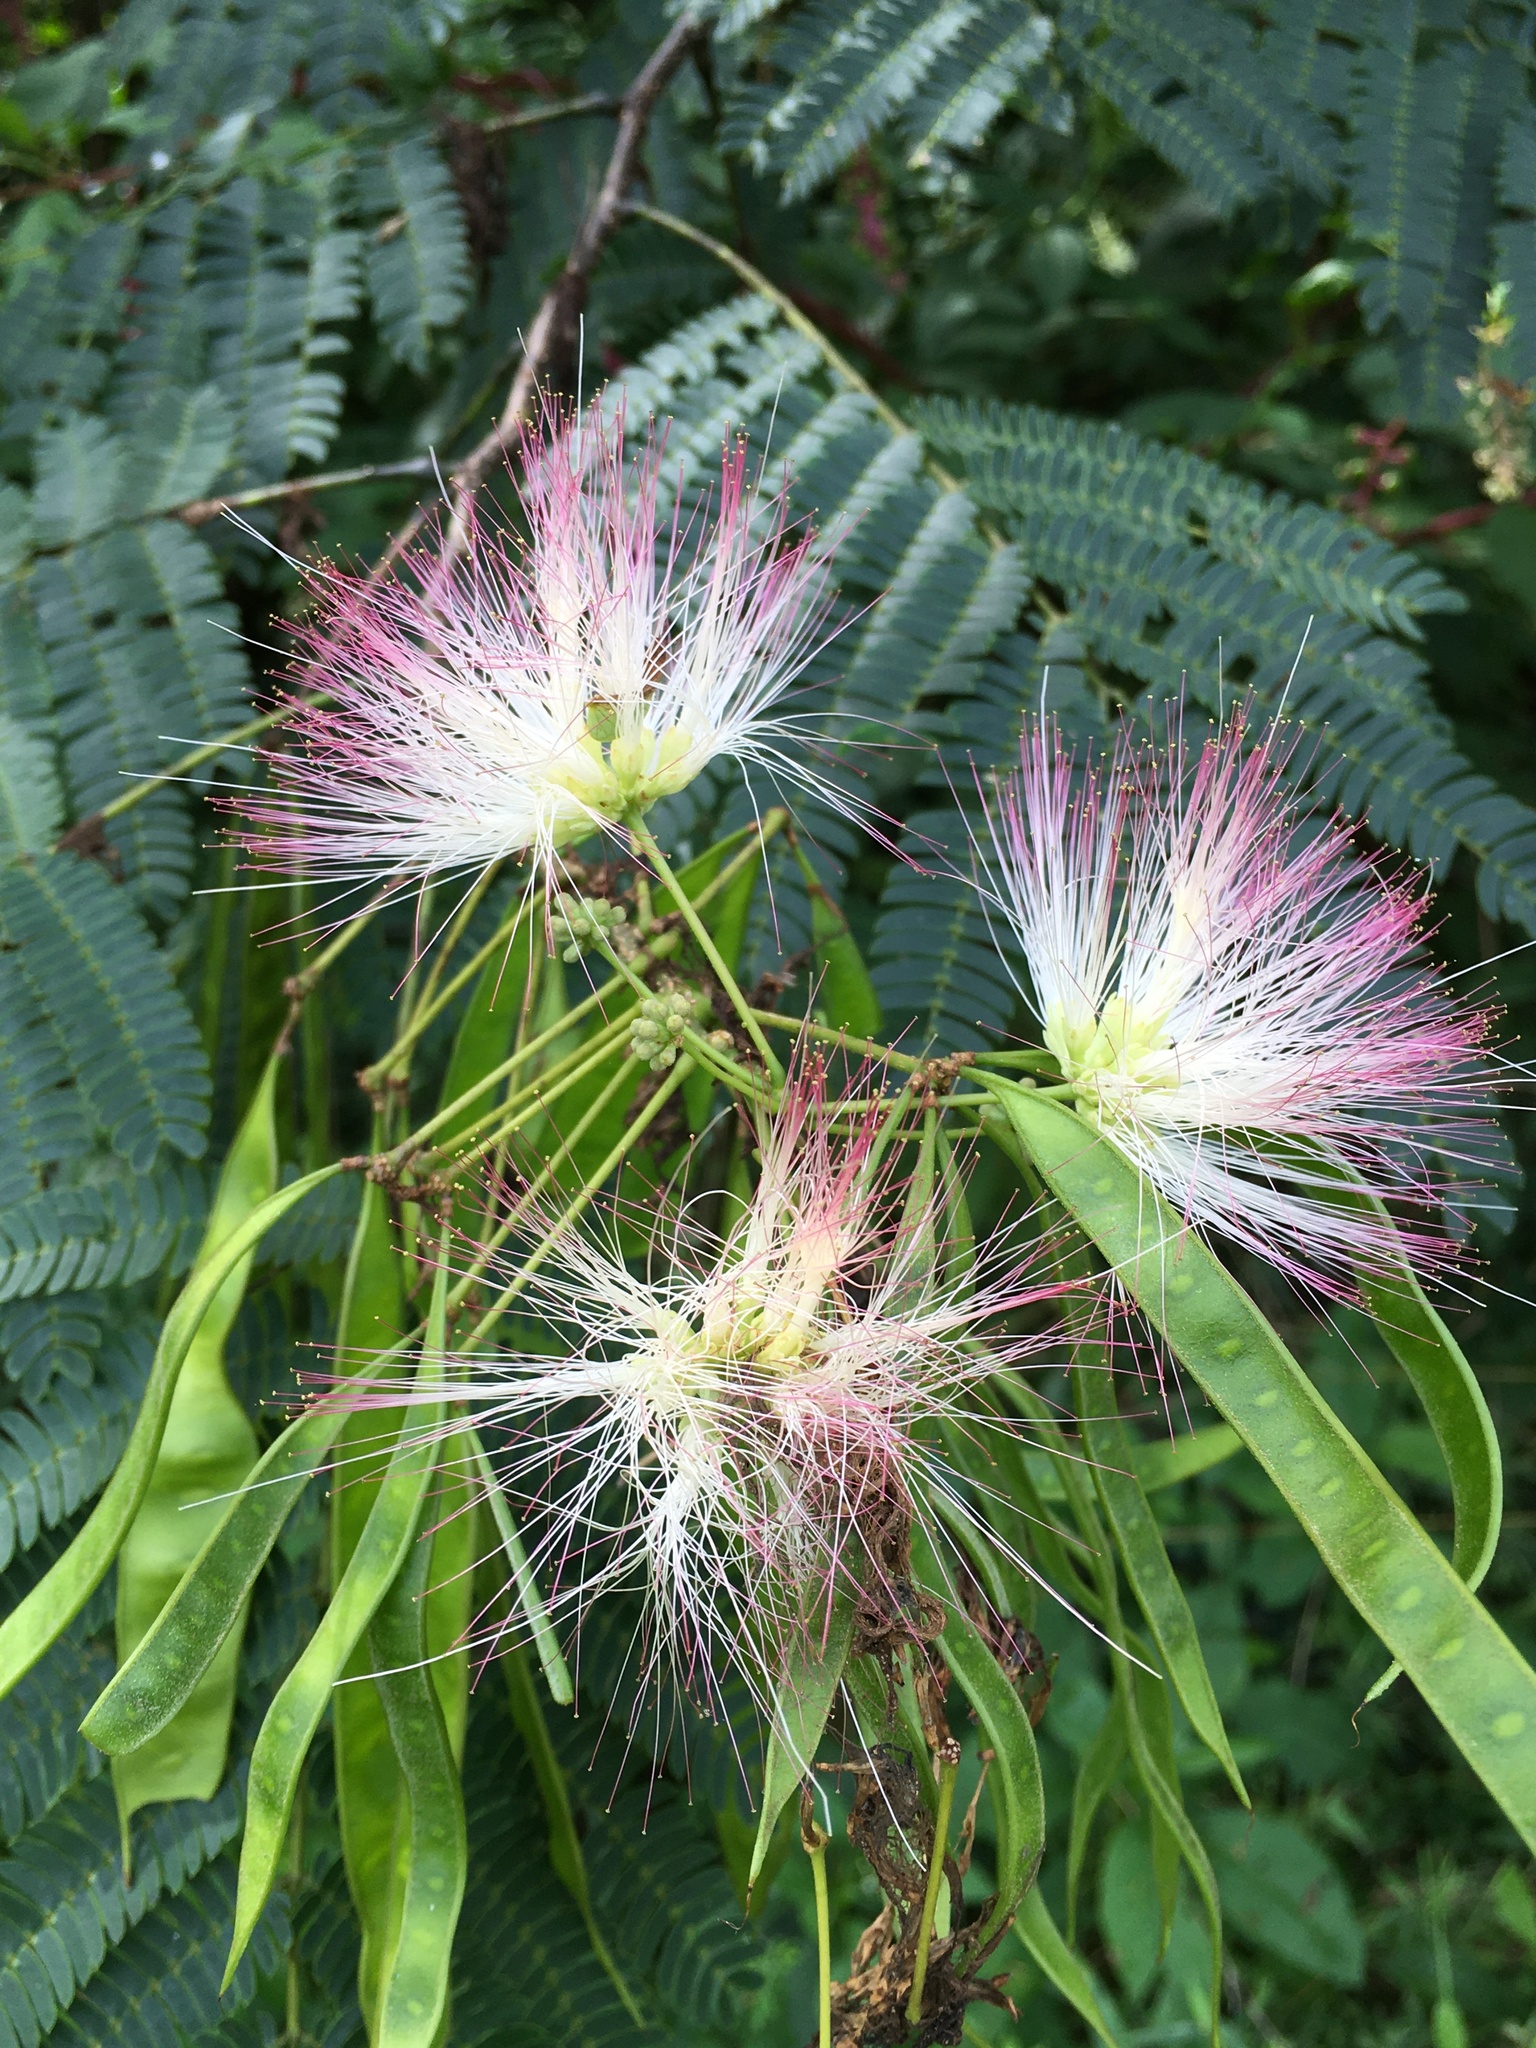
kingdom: Plantae
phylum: Tracheophyta
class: Magnoliopsida
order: Fabales
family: Fabaceae
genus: Albizia
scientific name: Albizia julibrissin
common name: Silktree
